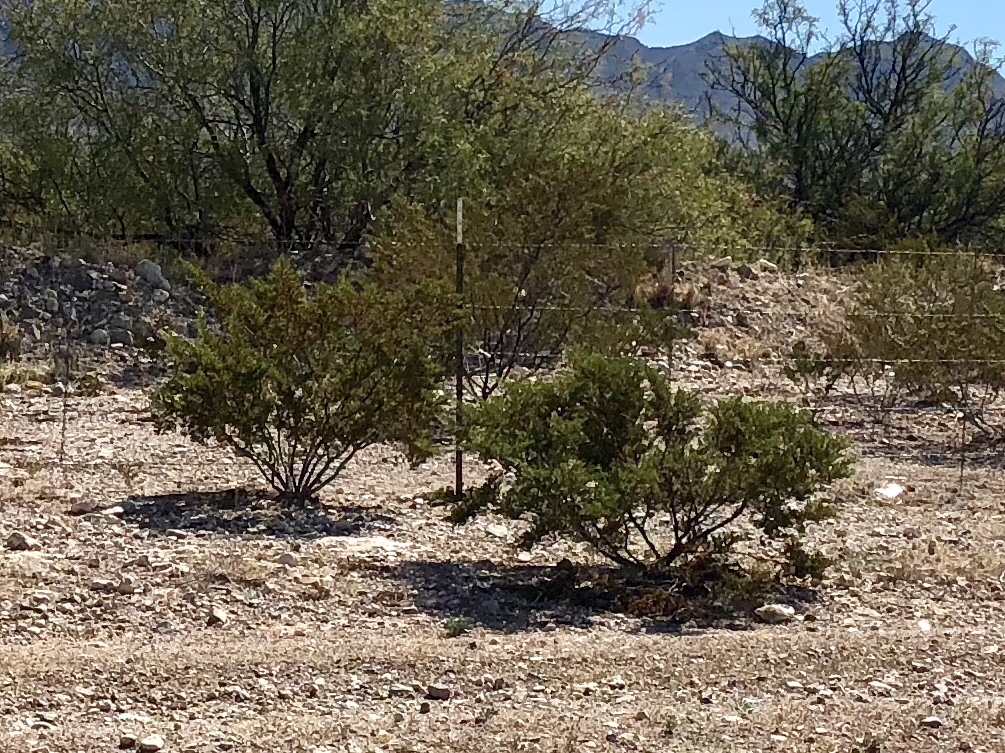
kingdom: Plantae
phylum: Tracheophyta
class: Magnoliopsida
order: Zygophyllales
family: Zygophyllaceae
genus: Larrea
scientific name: Larrea tridentata
